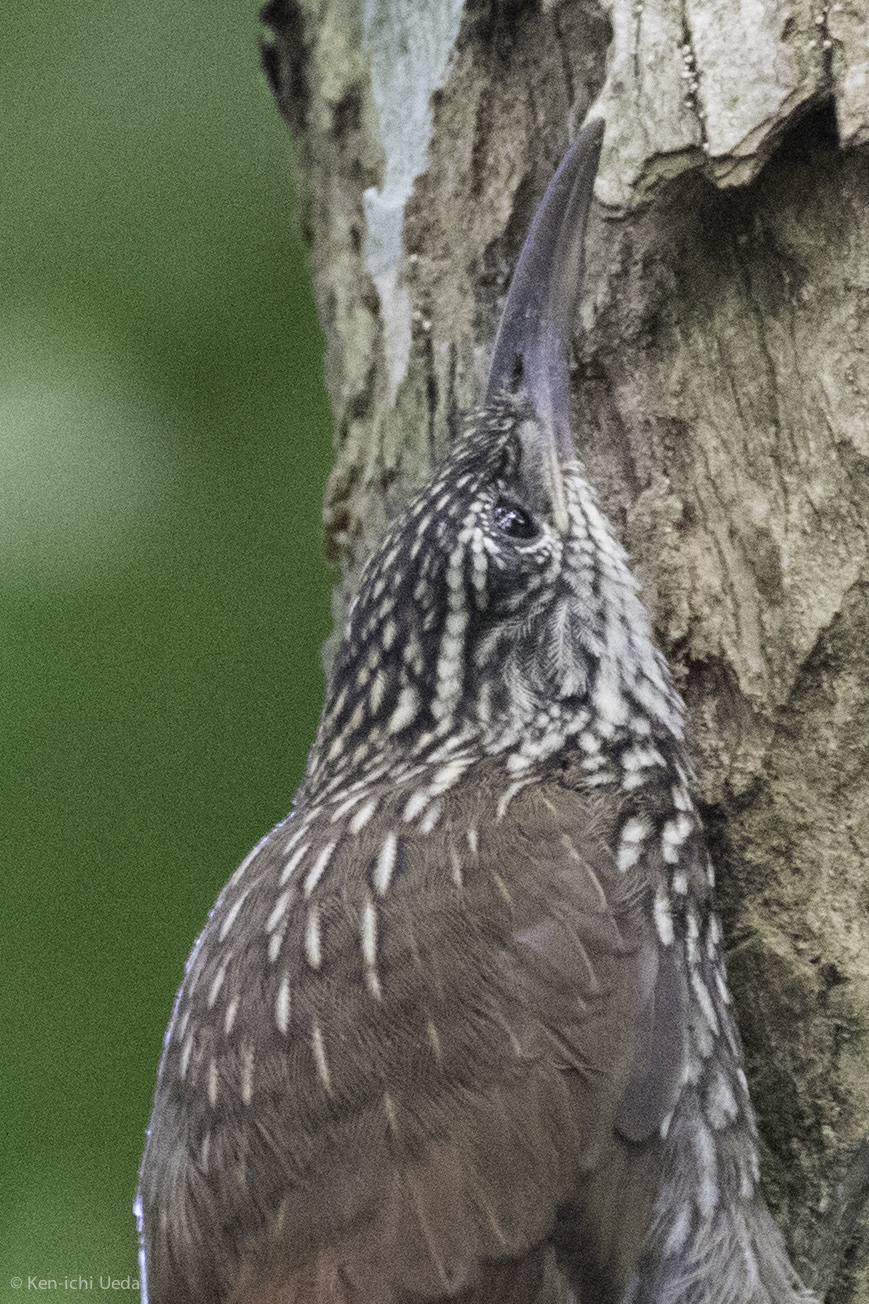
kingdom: Animalia
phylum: Chordata
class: Aves
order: Passeriformes
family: Furnariidae
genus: Lepidocolaptes
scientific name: Lepidocolaptes souleyetii
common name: Streak-headed woodcreeper
